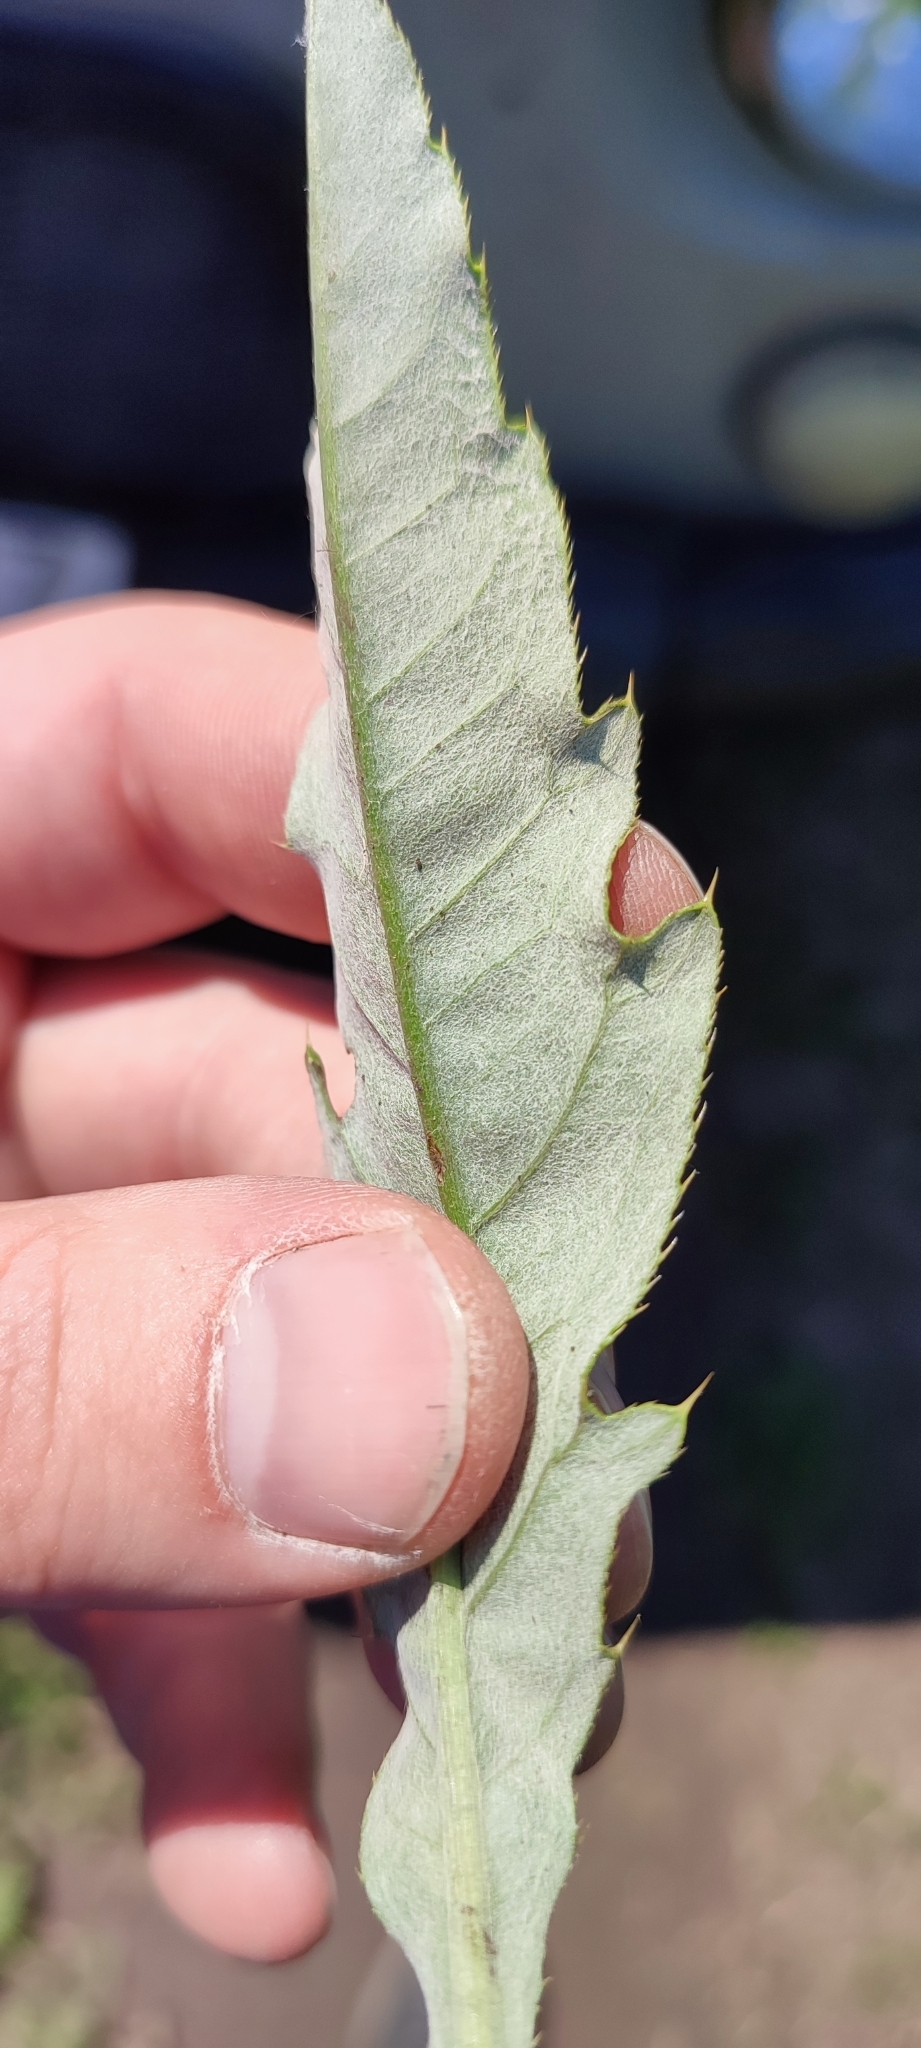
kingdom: Plantae
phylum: Tracheophyta
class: Magnoliopsida
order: Asterales
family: Asteraceae
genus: Cirsium
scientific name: Cirsium arvense
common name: Creeping thistle
